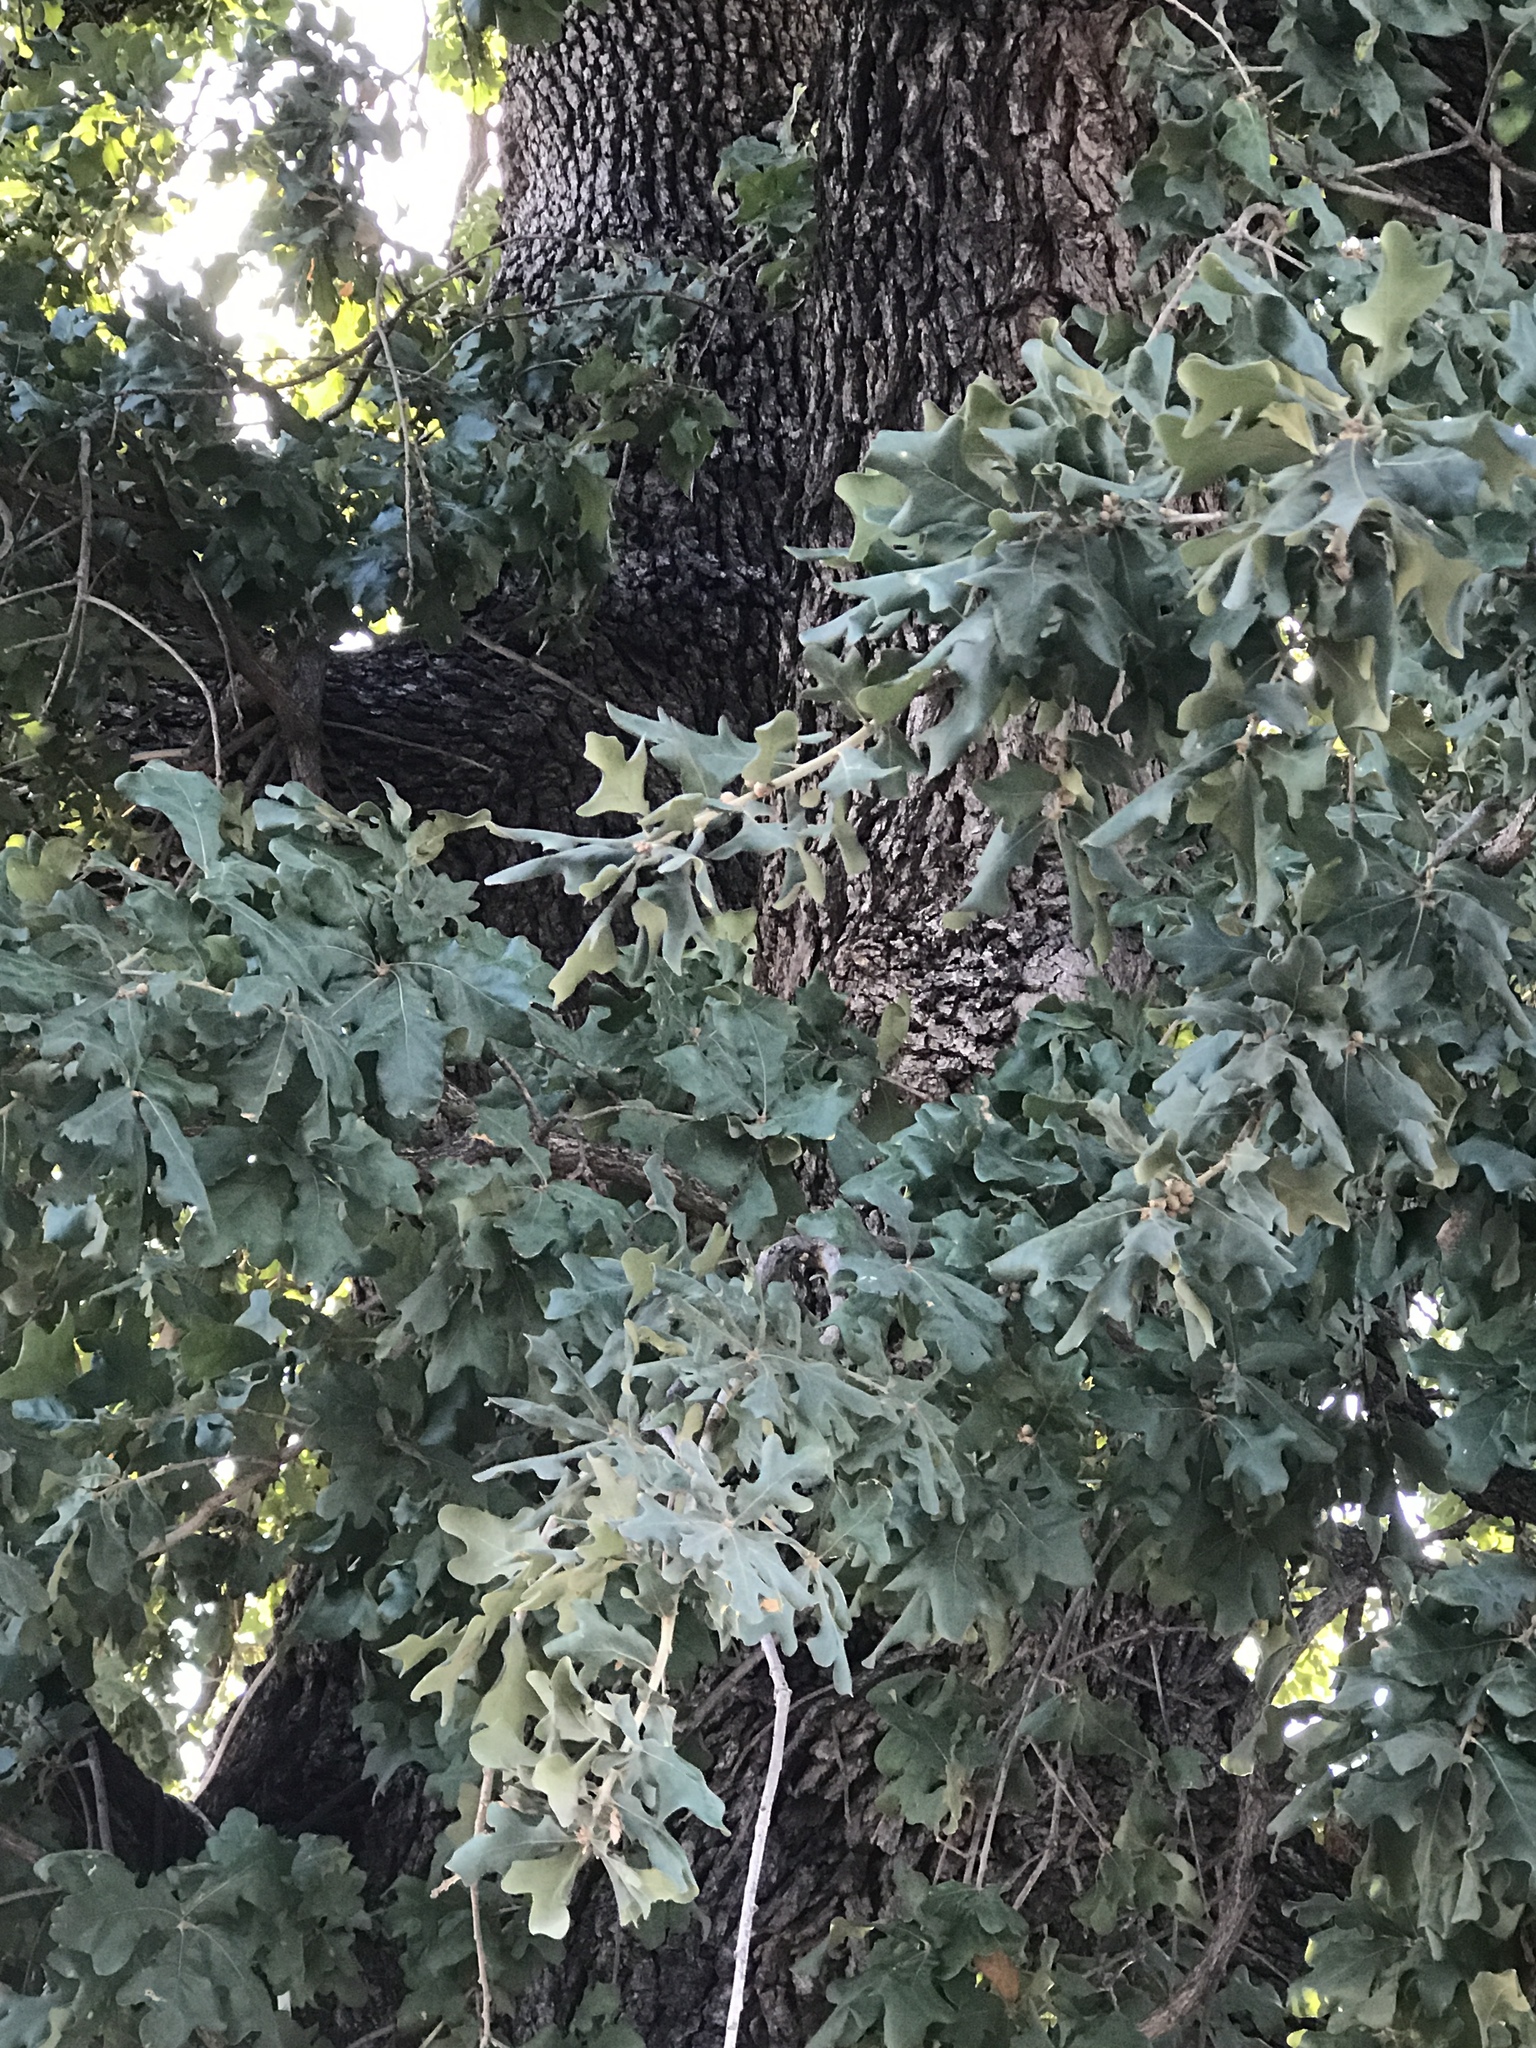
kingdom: Plantae
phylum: Tracheophyta
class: Magnoliopsida
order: Fagales
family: Fagaceae
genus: Quercus
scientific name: Quercus sinuata
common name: Durand oak
